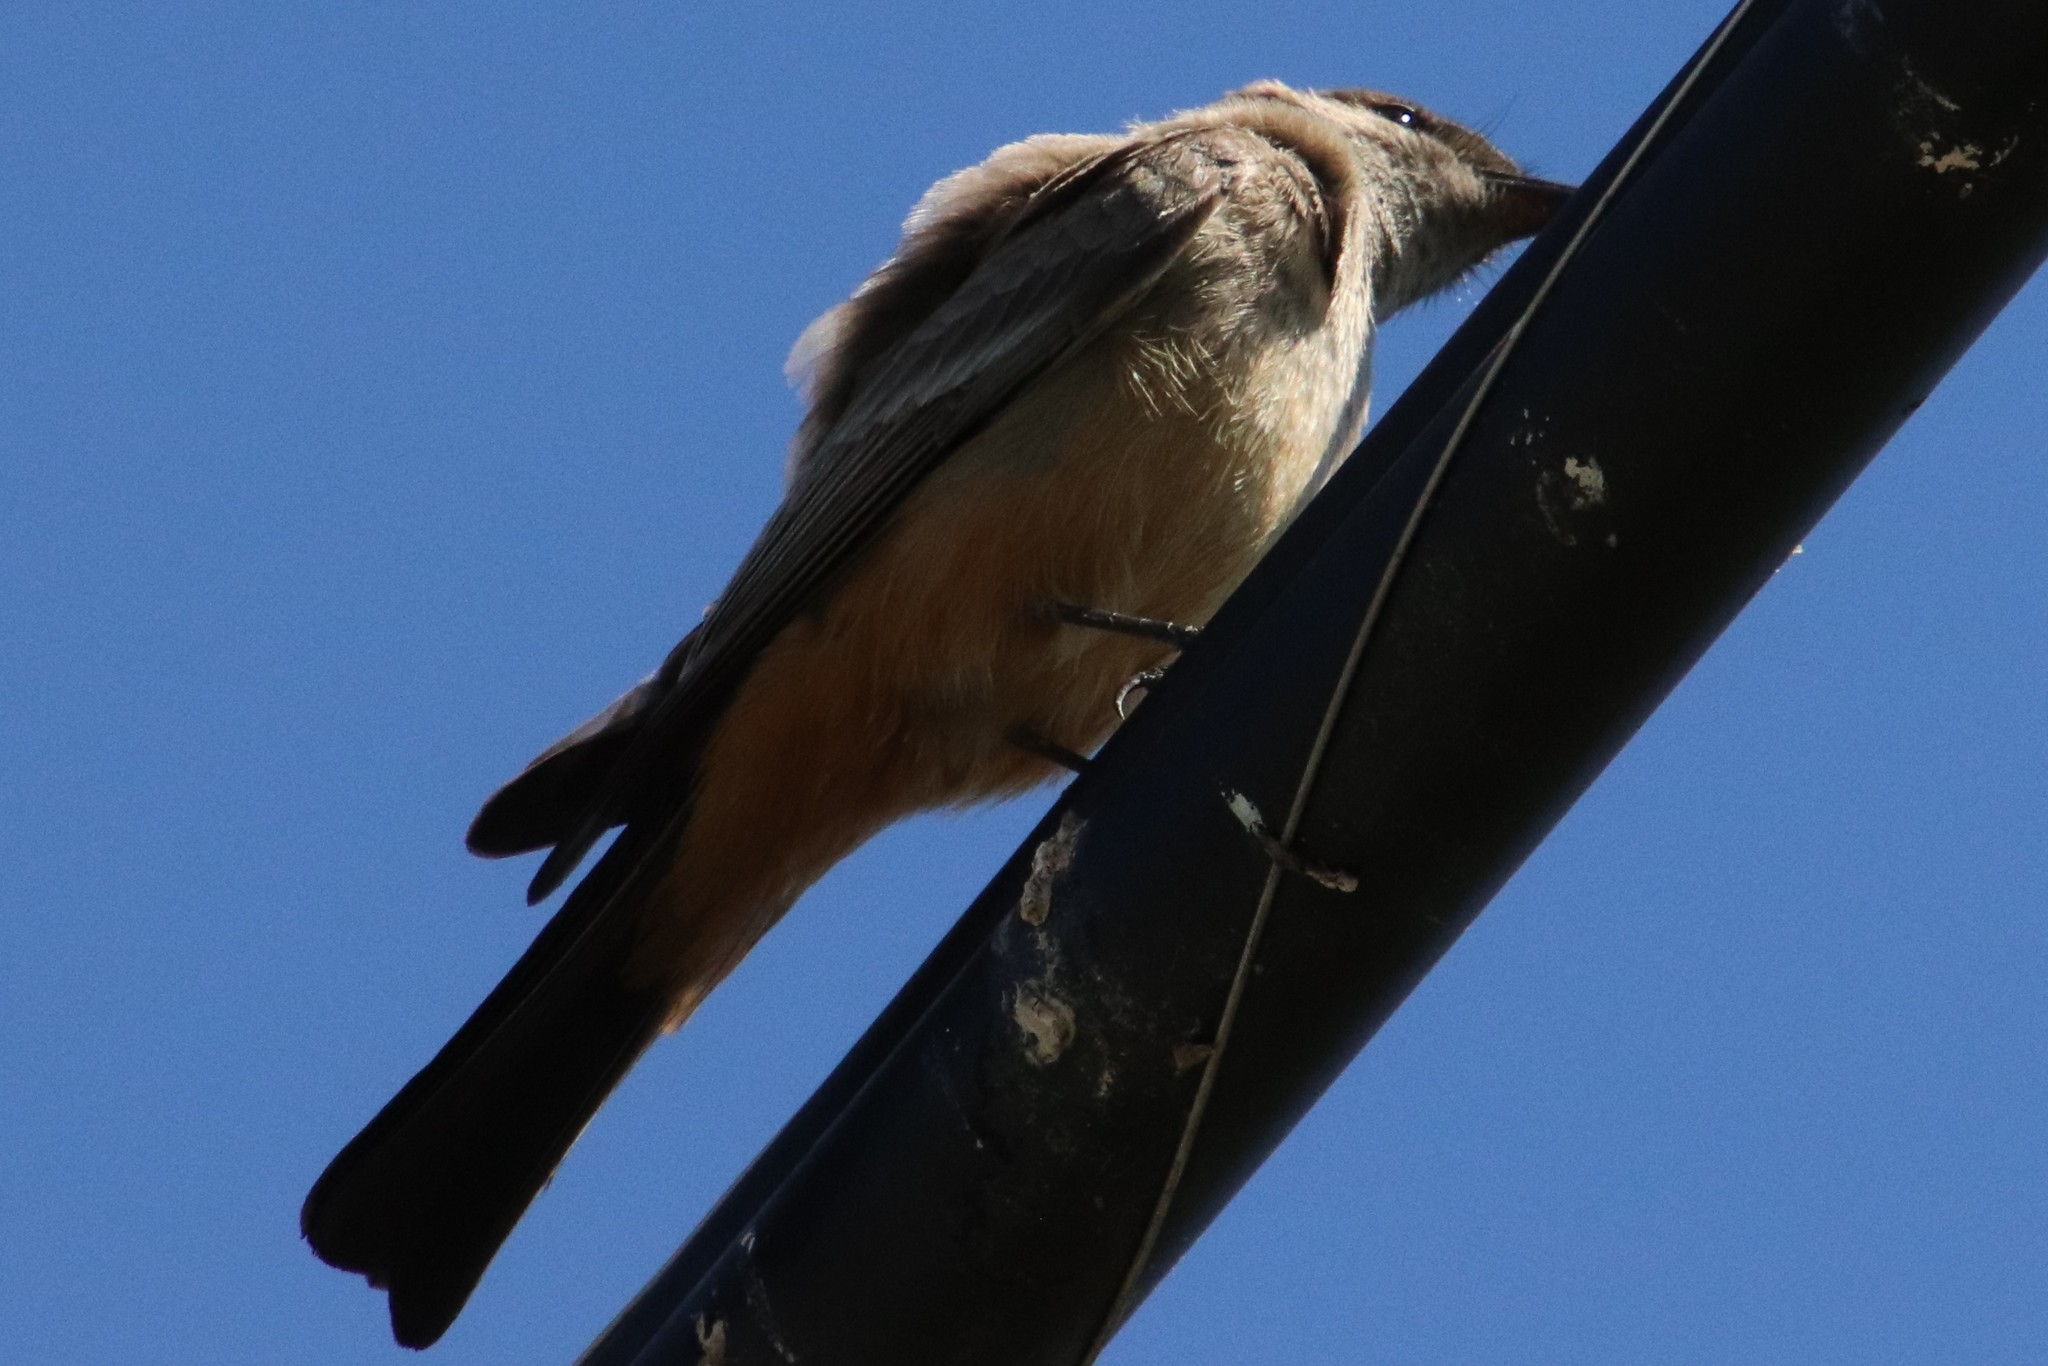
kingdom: Animalia
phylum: Chordata
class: Aves
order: Passeriformes
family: Tyrannidae
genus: Sayornis
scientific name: Sayornis saya
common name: Say's phoebe
